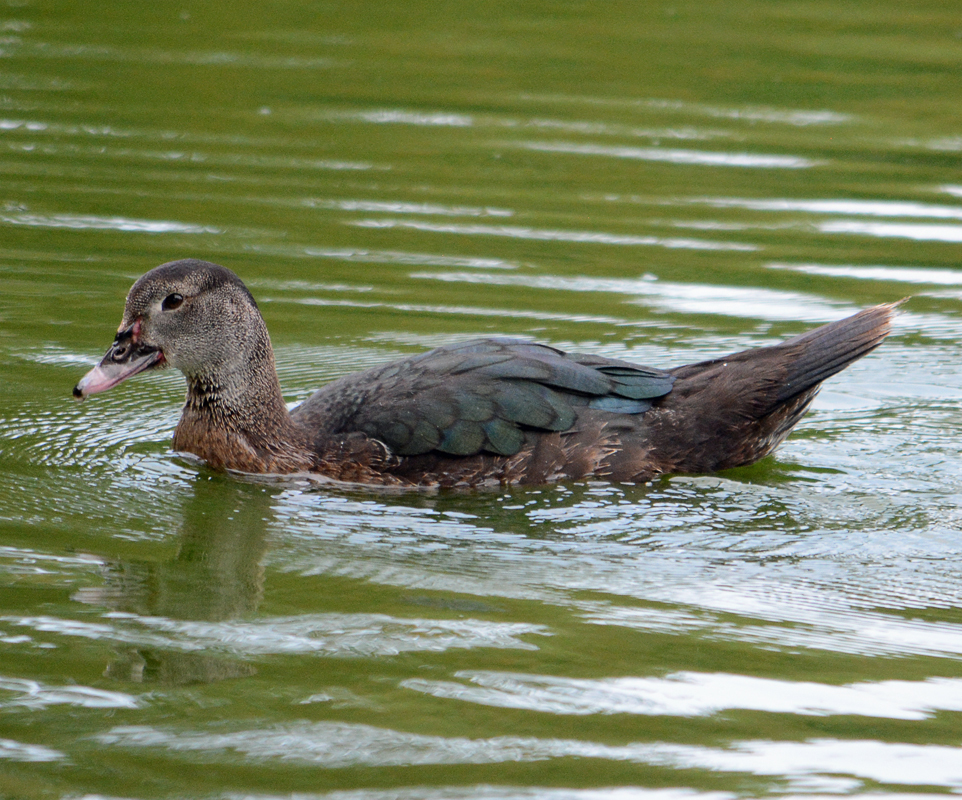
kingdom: Animalia
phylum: Chordata
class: Aves
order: Anseriformes
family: Anatidae
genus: Cairina
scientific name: Cairina moschata
